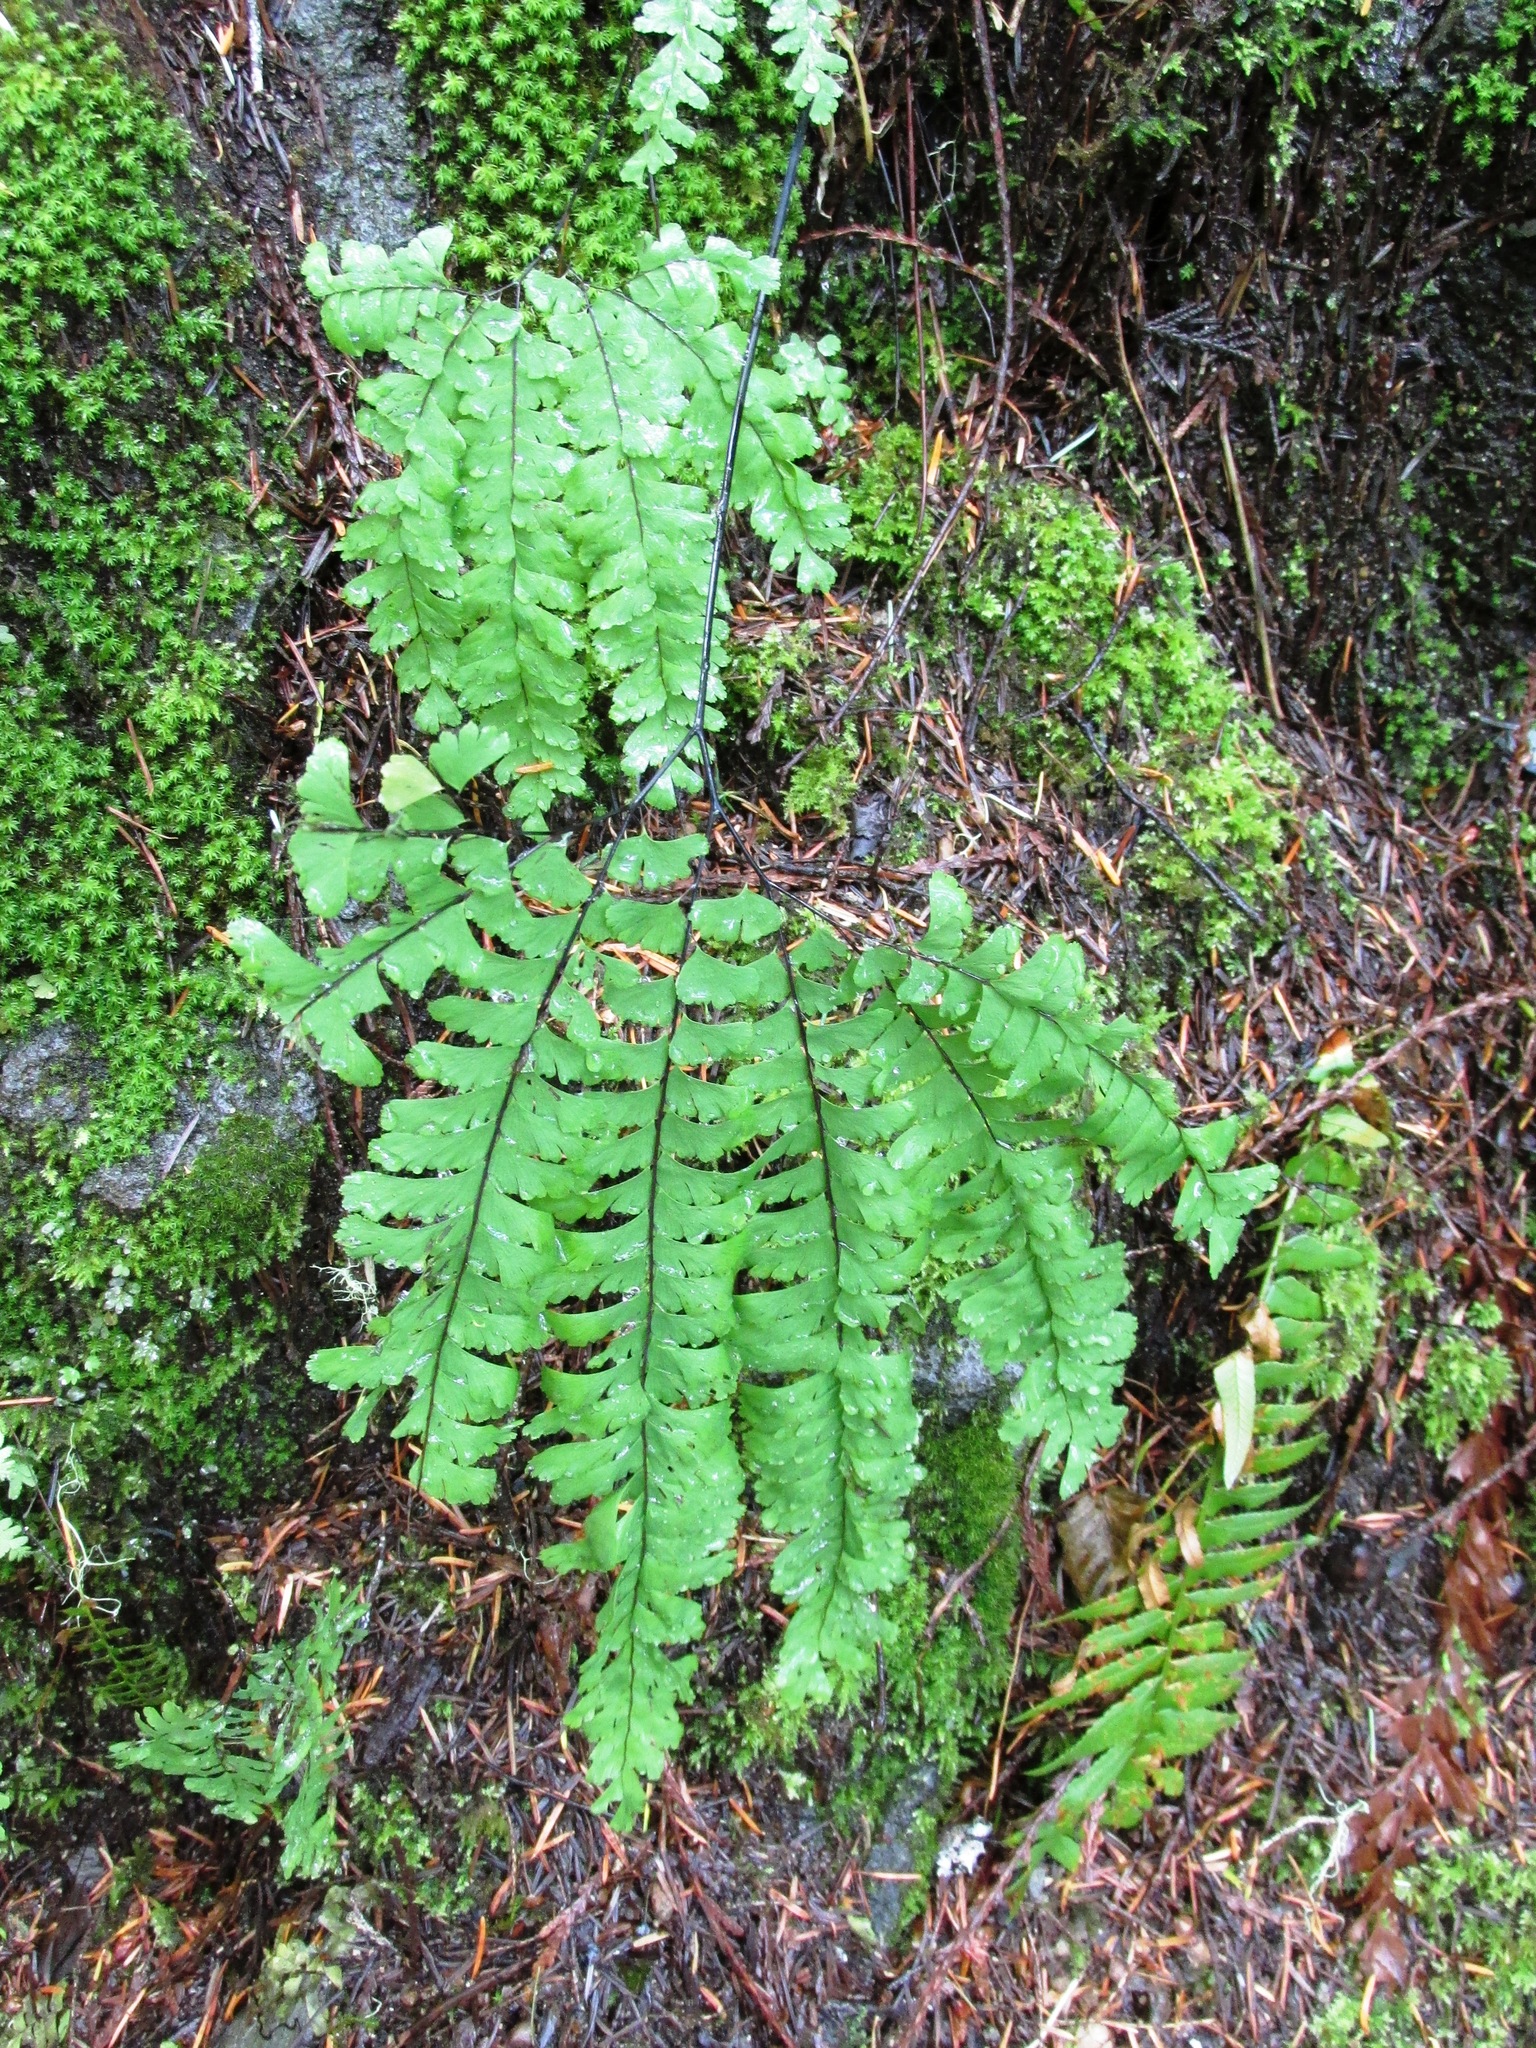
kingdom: Plantae
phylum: Tracheophyta
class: Polypodiopsida
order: Polypodiales
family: Pteridaceae
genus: Adiantum
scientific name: Adiantum aleuticum
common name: Aleutian maidenhair fern
